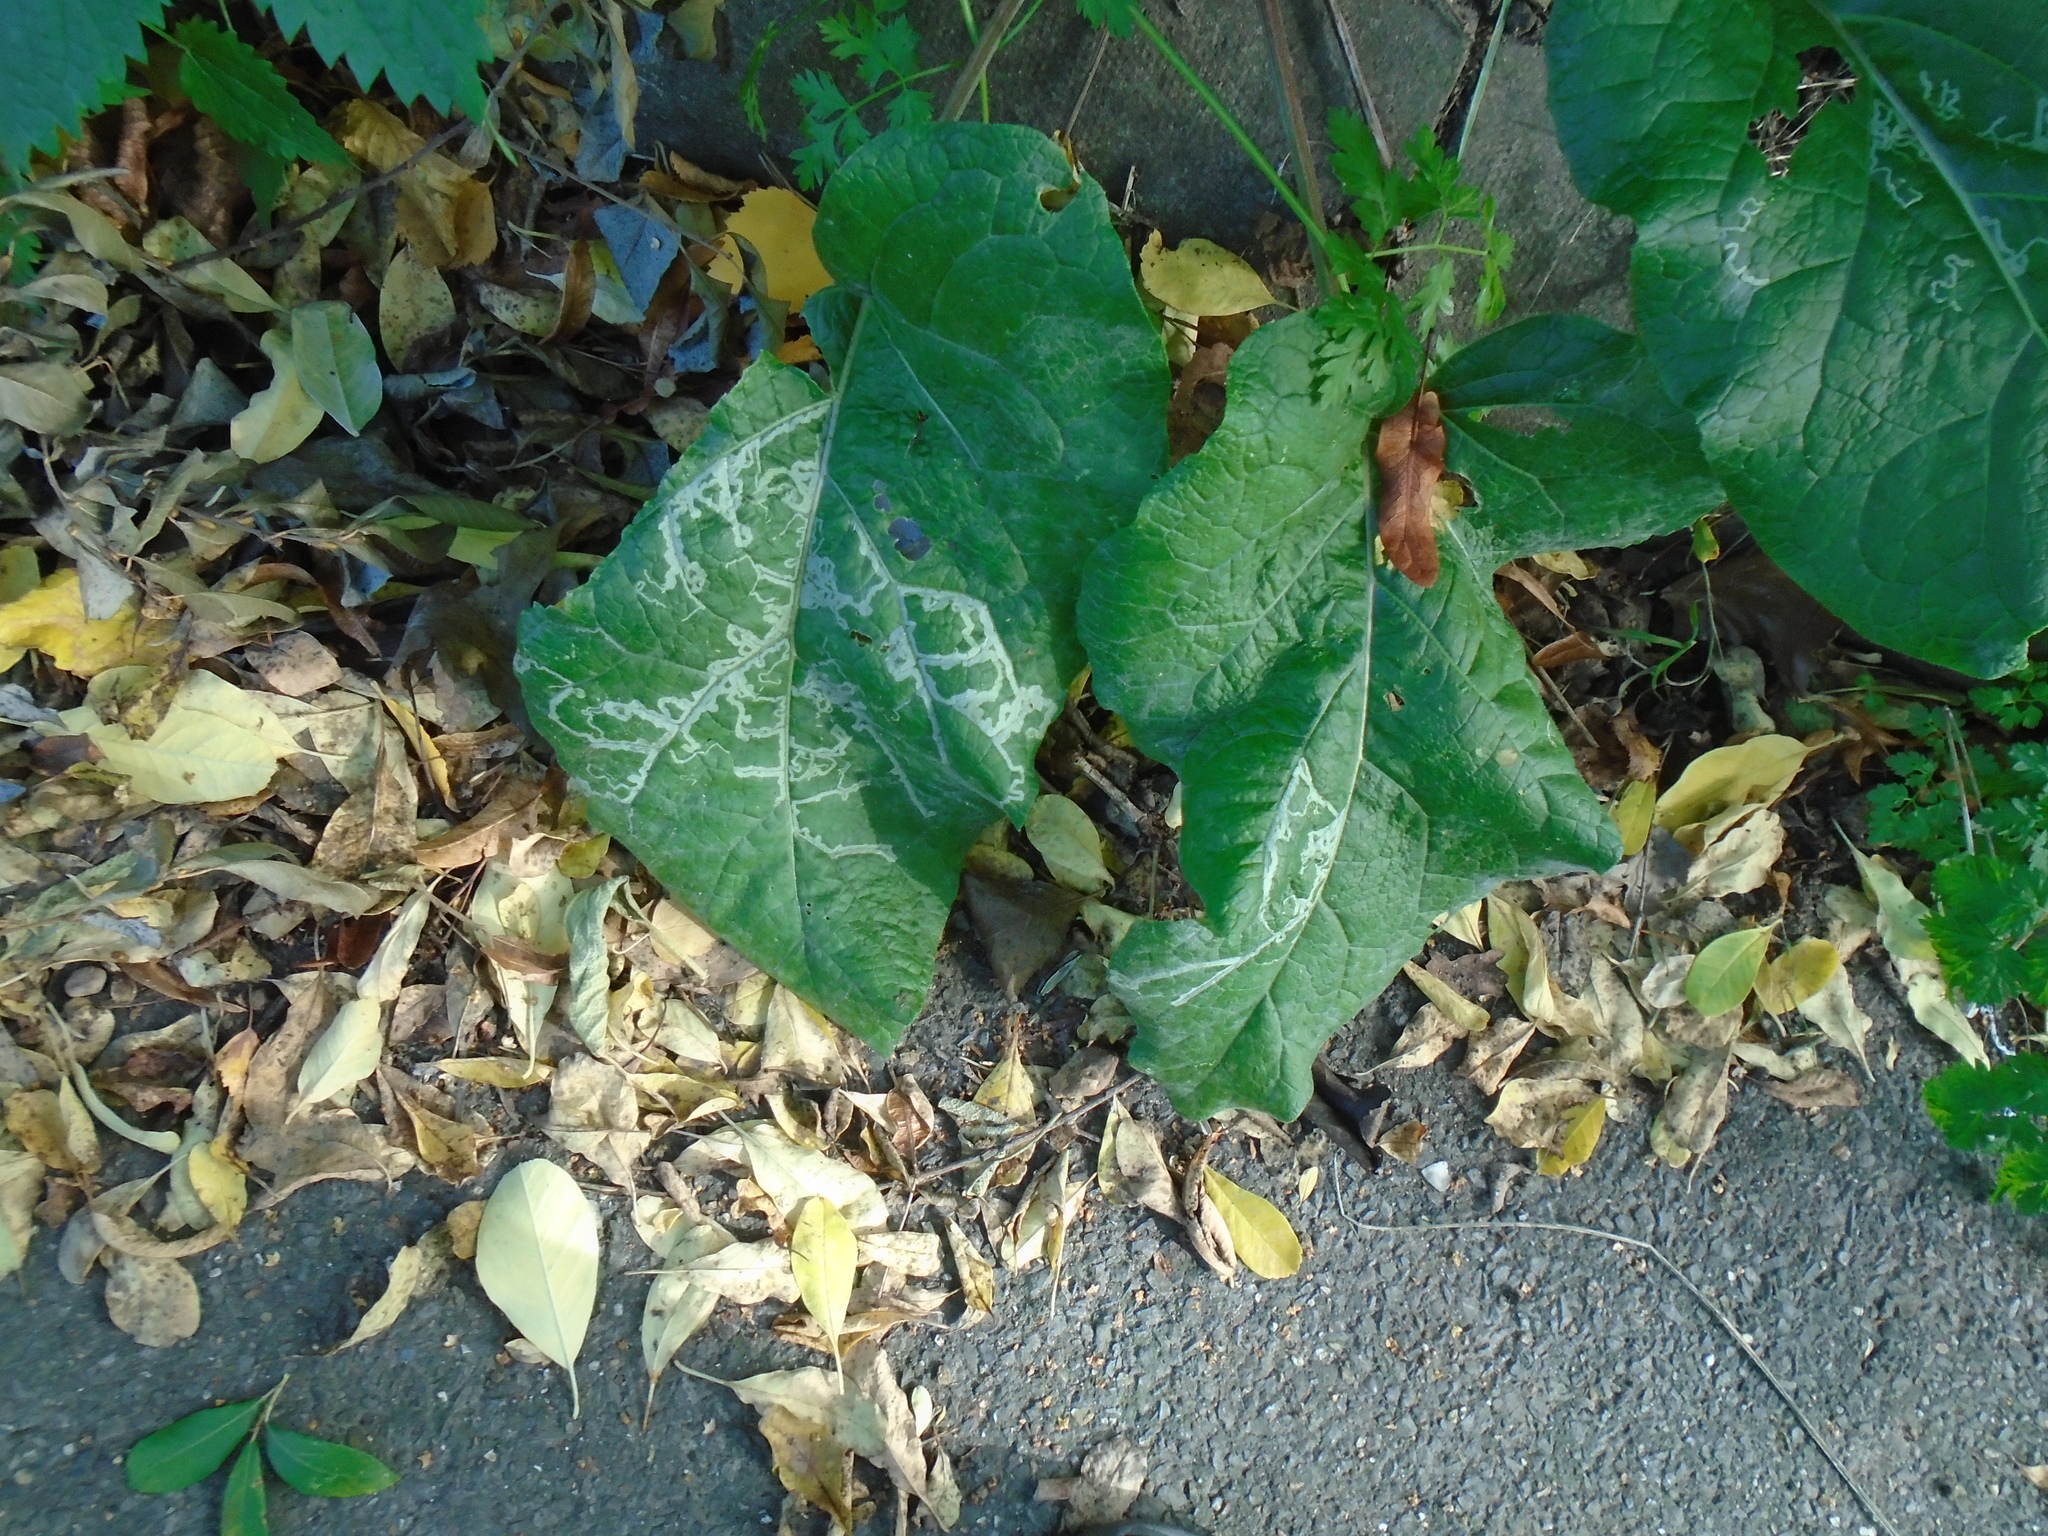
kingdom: Animalia
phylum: Arthropoda
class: Insecta
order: Diptera
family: Agromyzidae
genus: Phytomyza
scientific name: Phytomyza lappae
